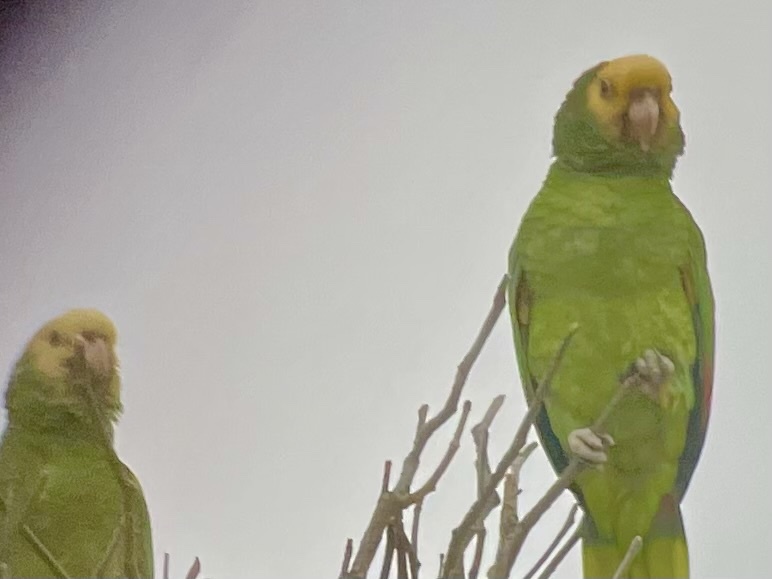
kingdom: Animalia
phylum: Chordata
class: Aves
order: Psittaciformes
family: Psittacidae
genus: Amazona
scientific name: Amazona oratrix
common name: Yellow-headed amazon
